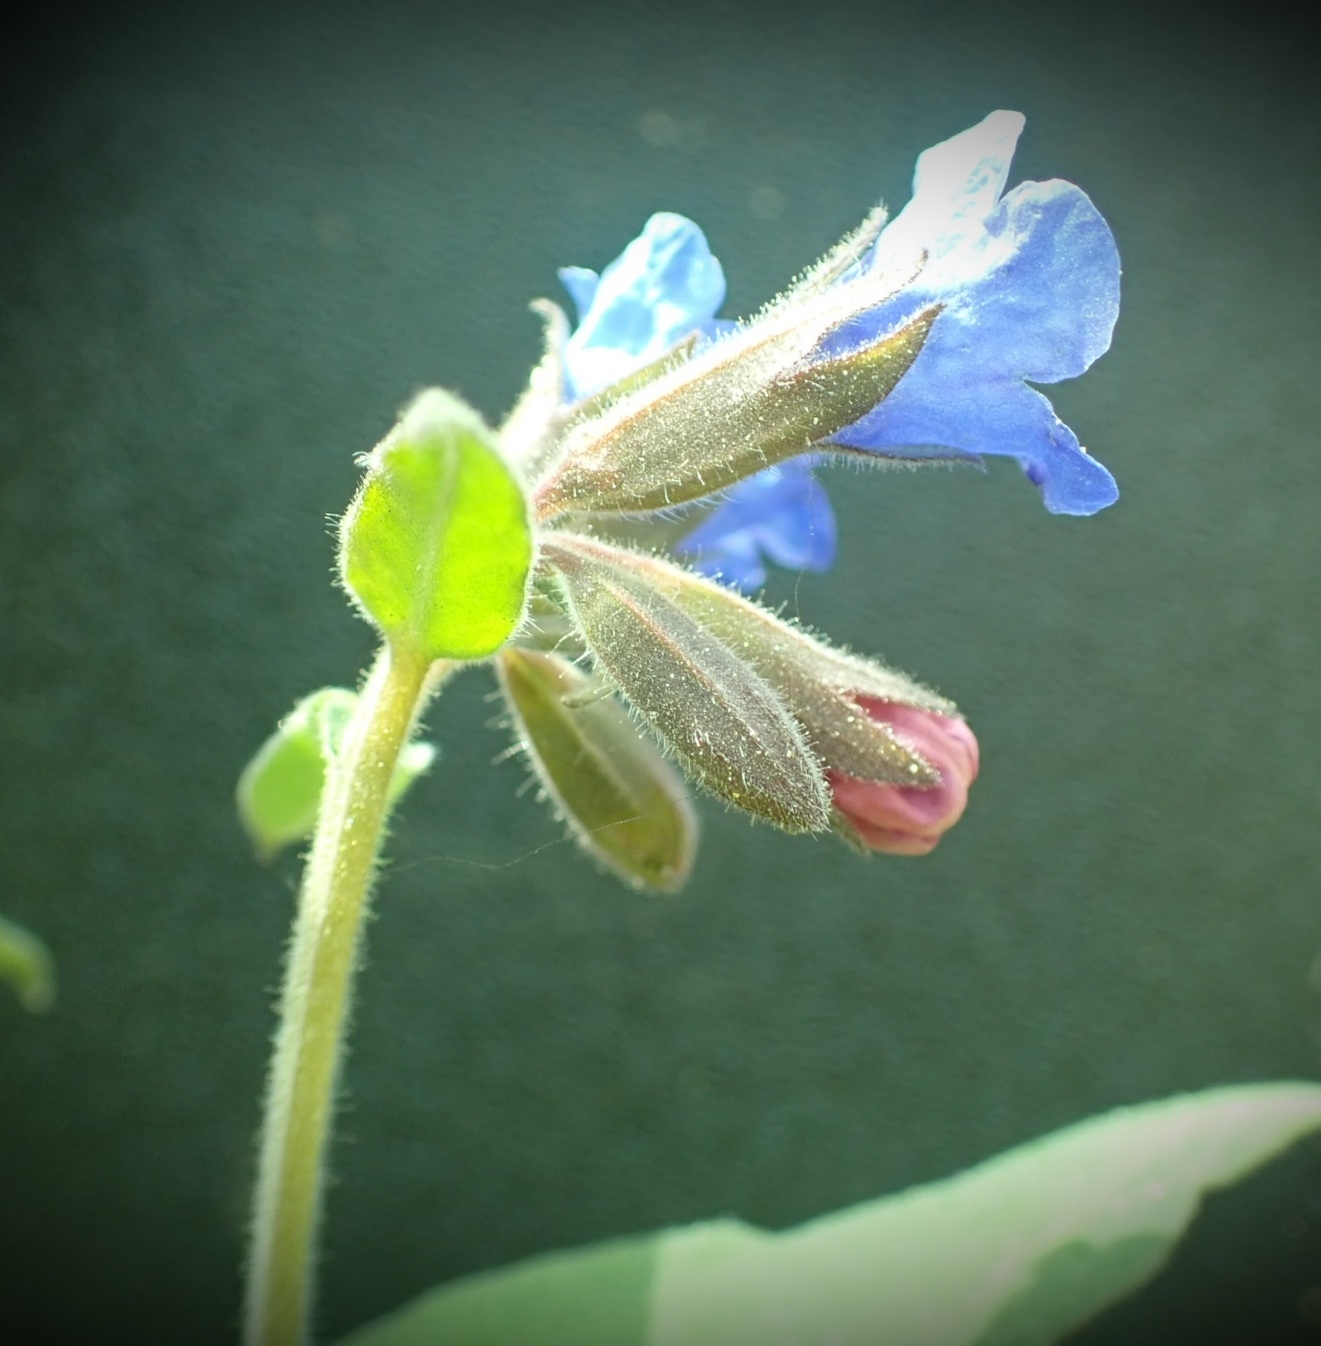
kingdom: Plantae
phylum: Tracheophyta
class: Magnoliopsida
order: Boraginales
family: Boraginaceae
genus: Pulmonaria
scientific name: Pulmonaria mollis
